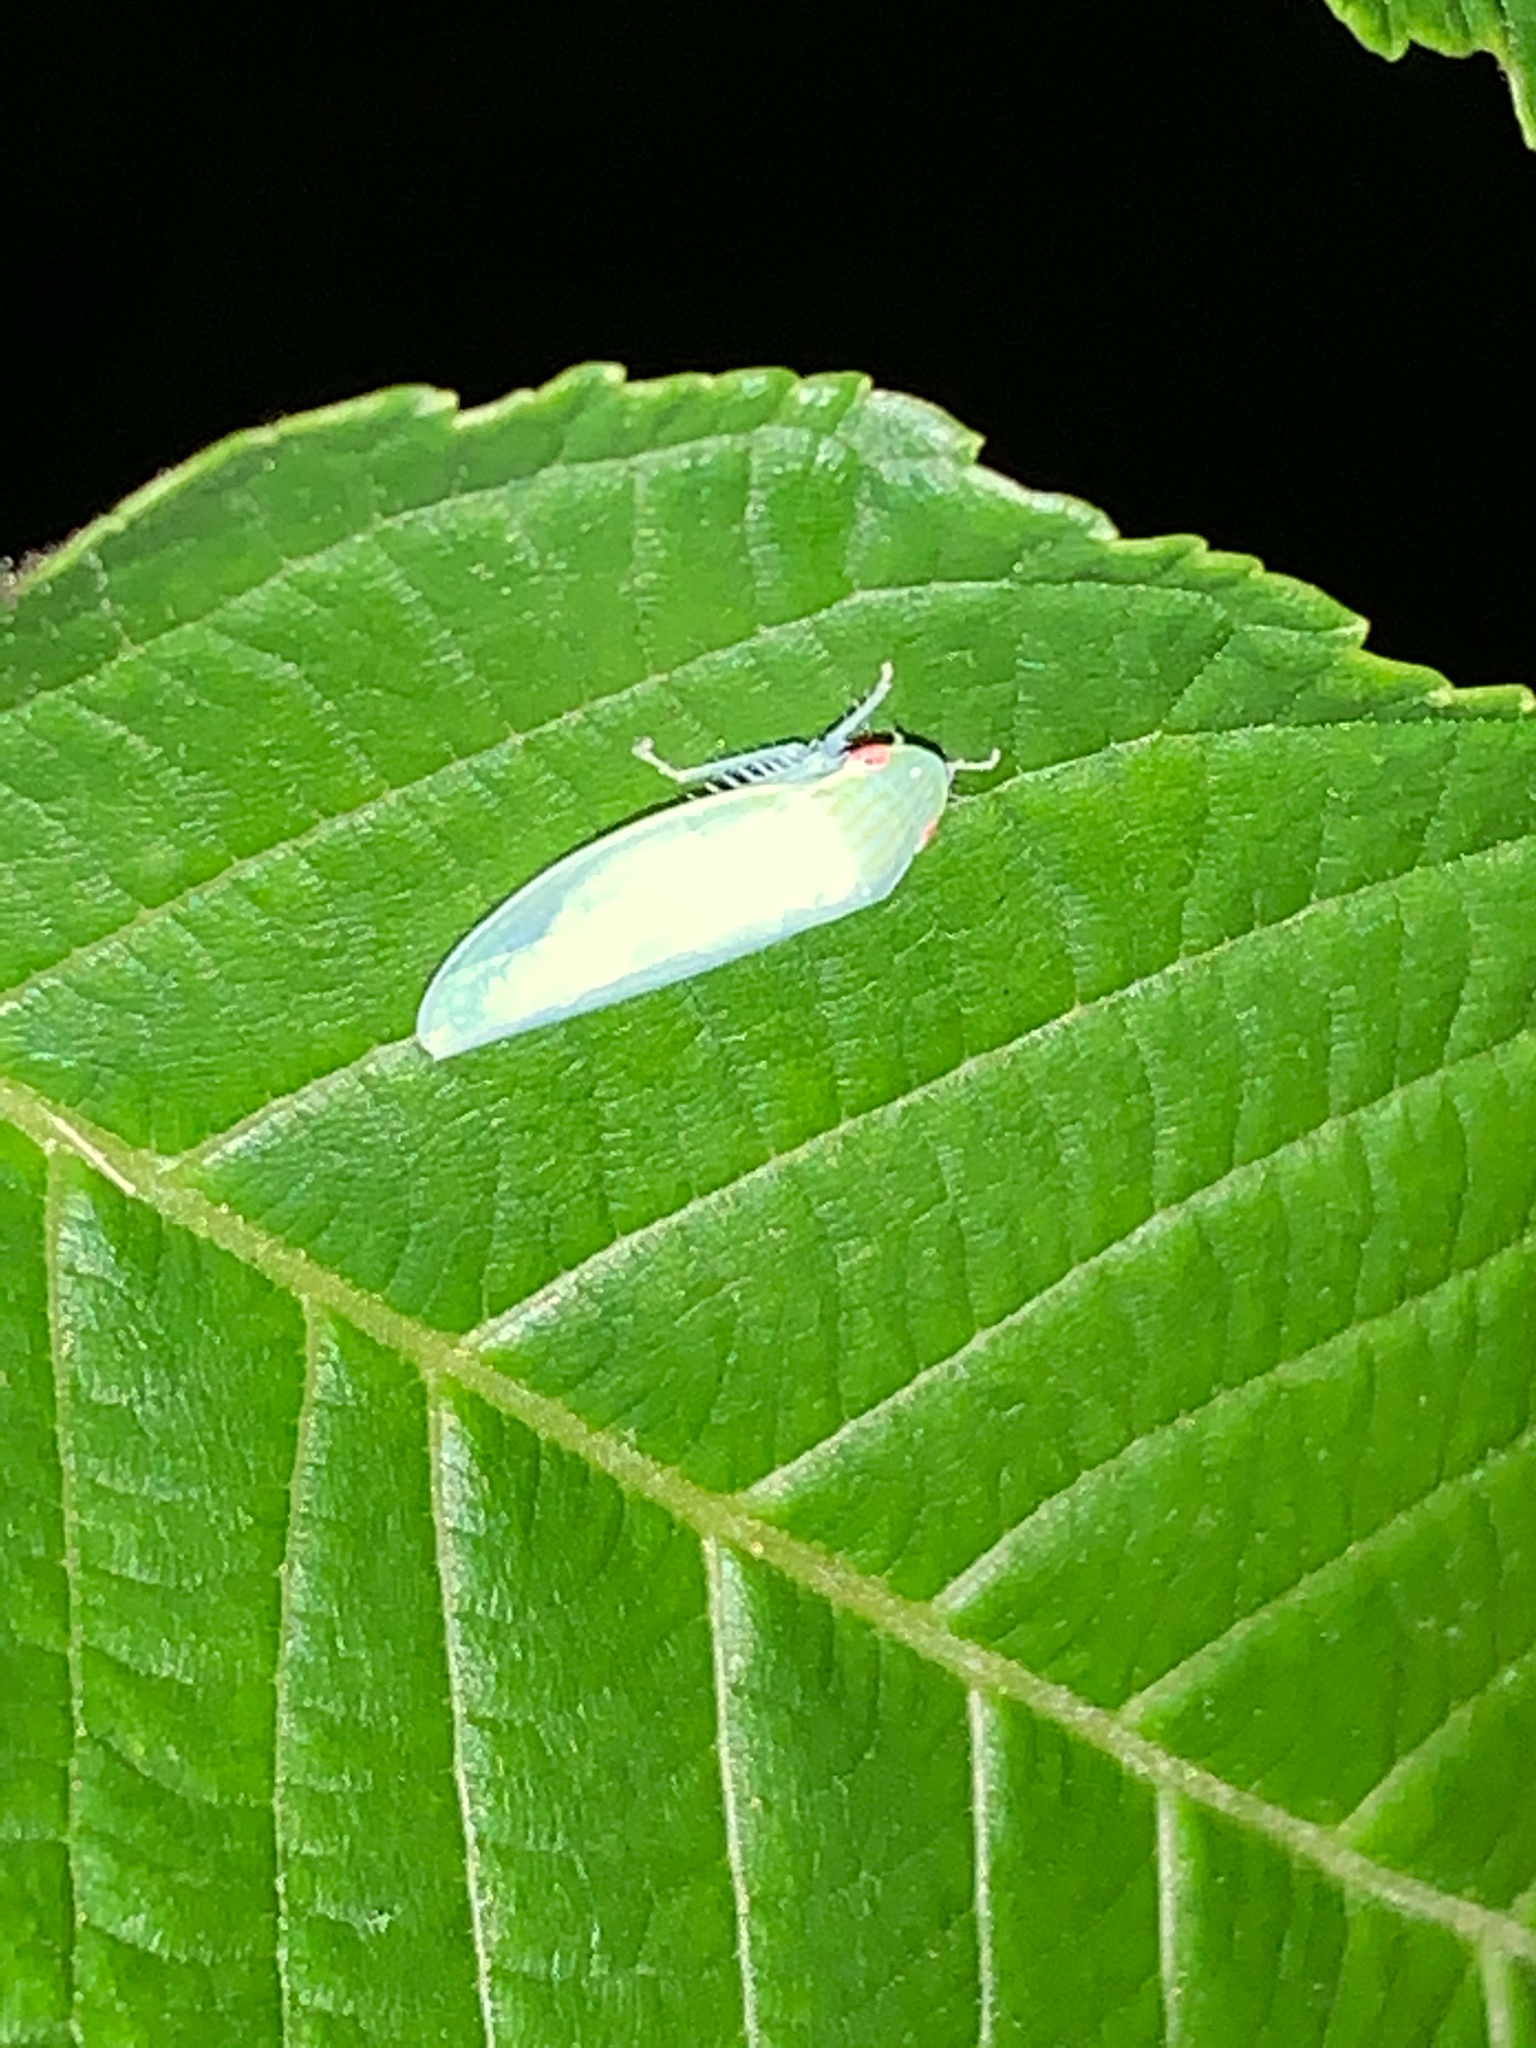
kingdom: Animalia
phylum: Arthropoda
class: Insecta
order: Hemiptera
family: Cicadellidae
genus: Gyponana
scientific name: Gyponana
